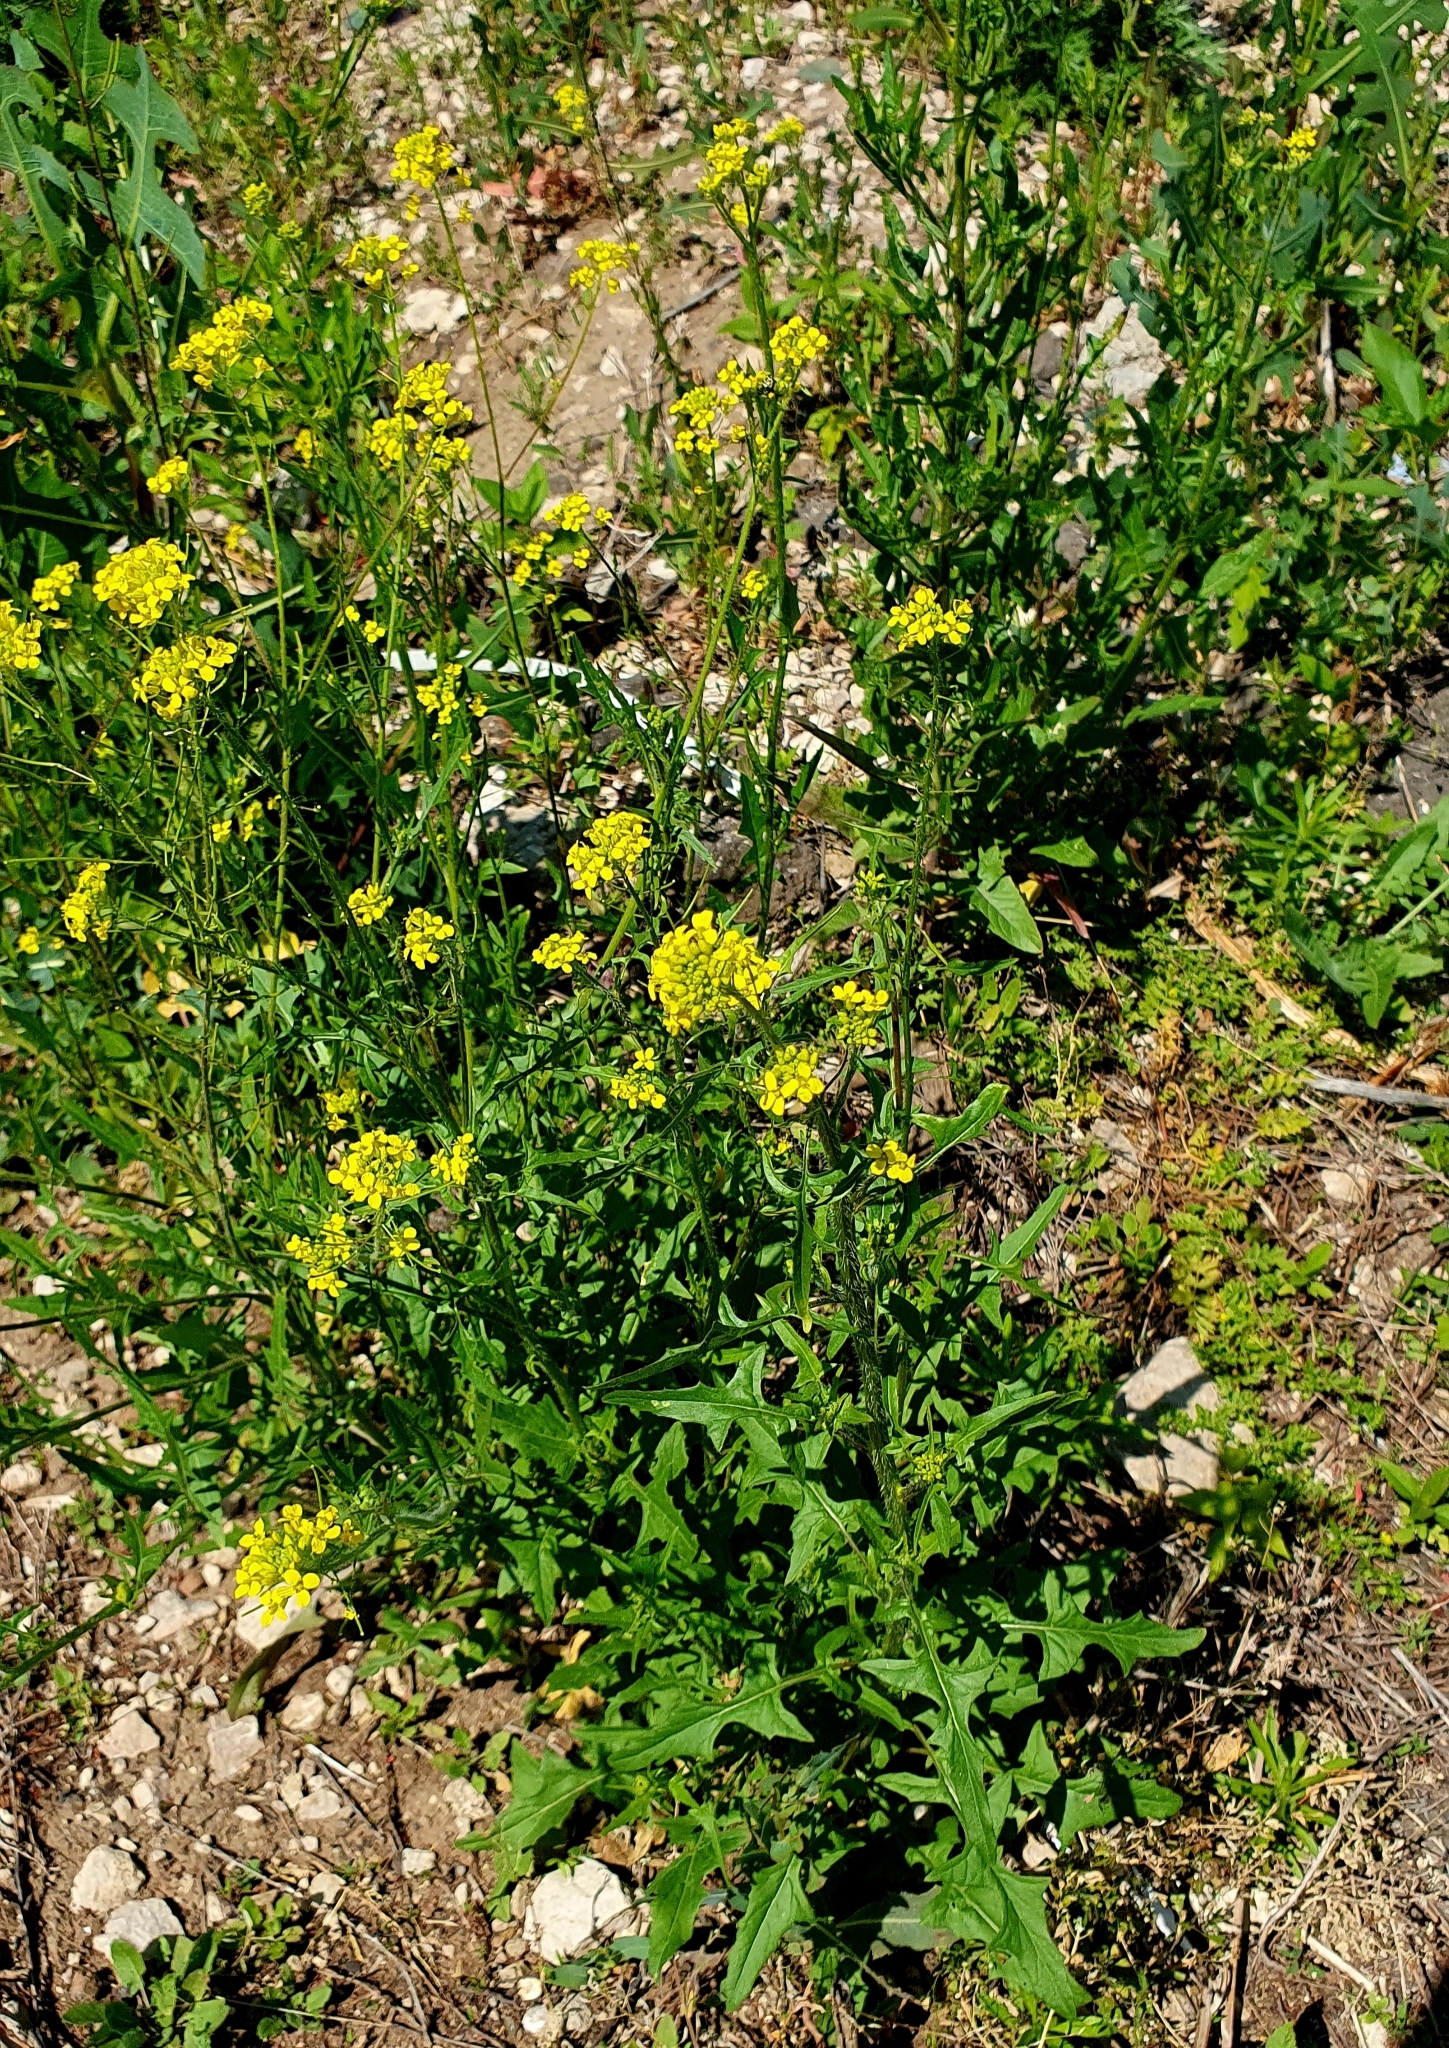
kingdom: Plantae
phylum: Tracheophyta
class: Magnoliopsida
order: Brassicales
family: Brassicaceae
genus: Sisymbrium
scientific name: Sisymbrium loeselii
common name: False london-rocket
